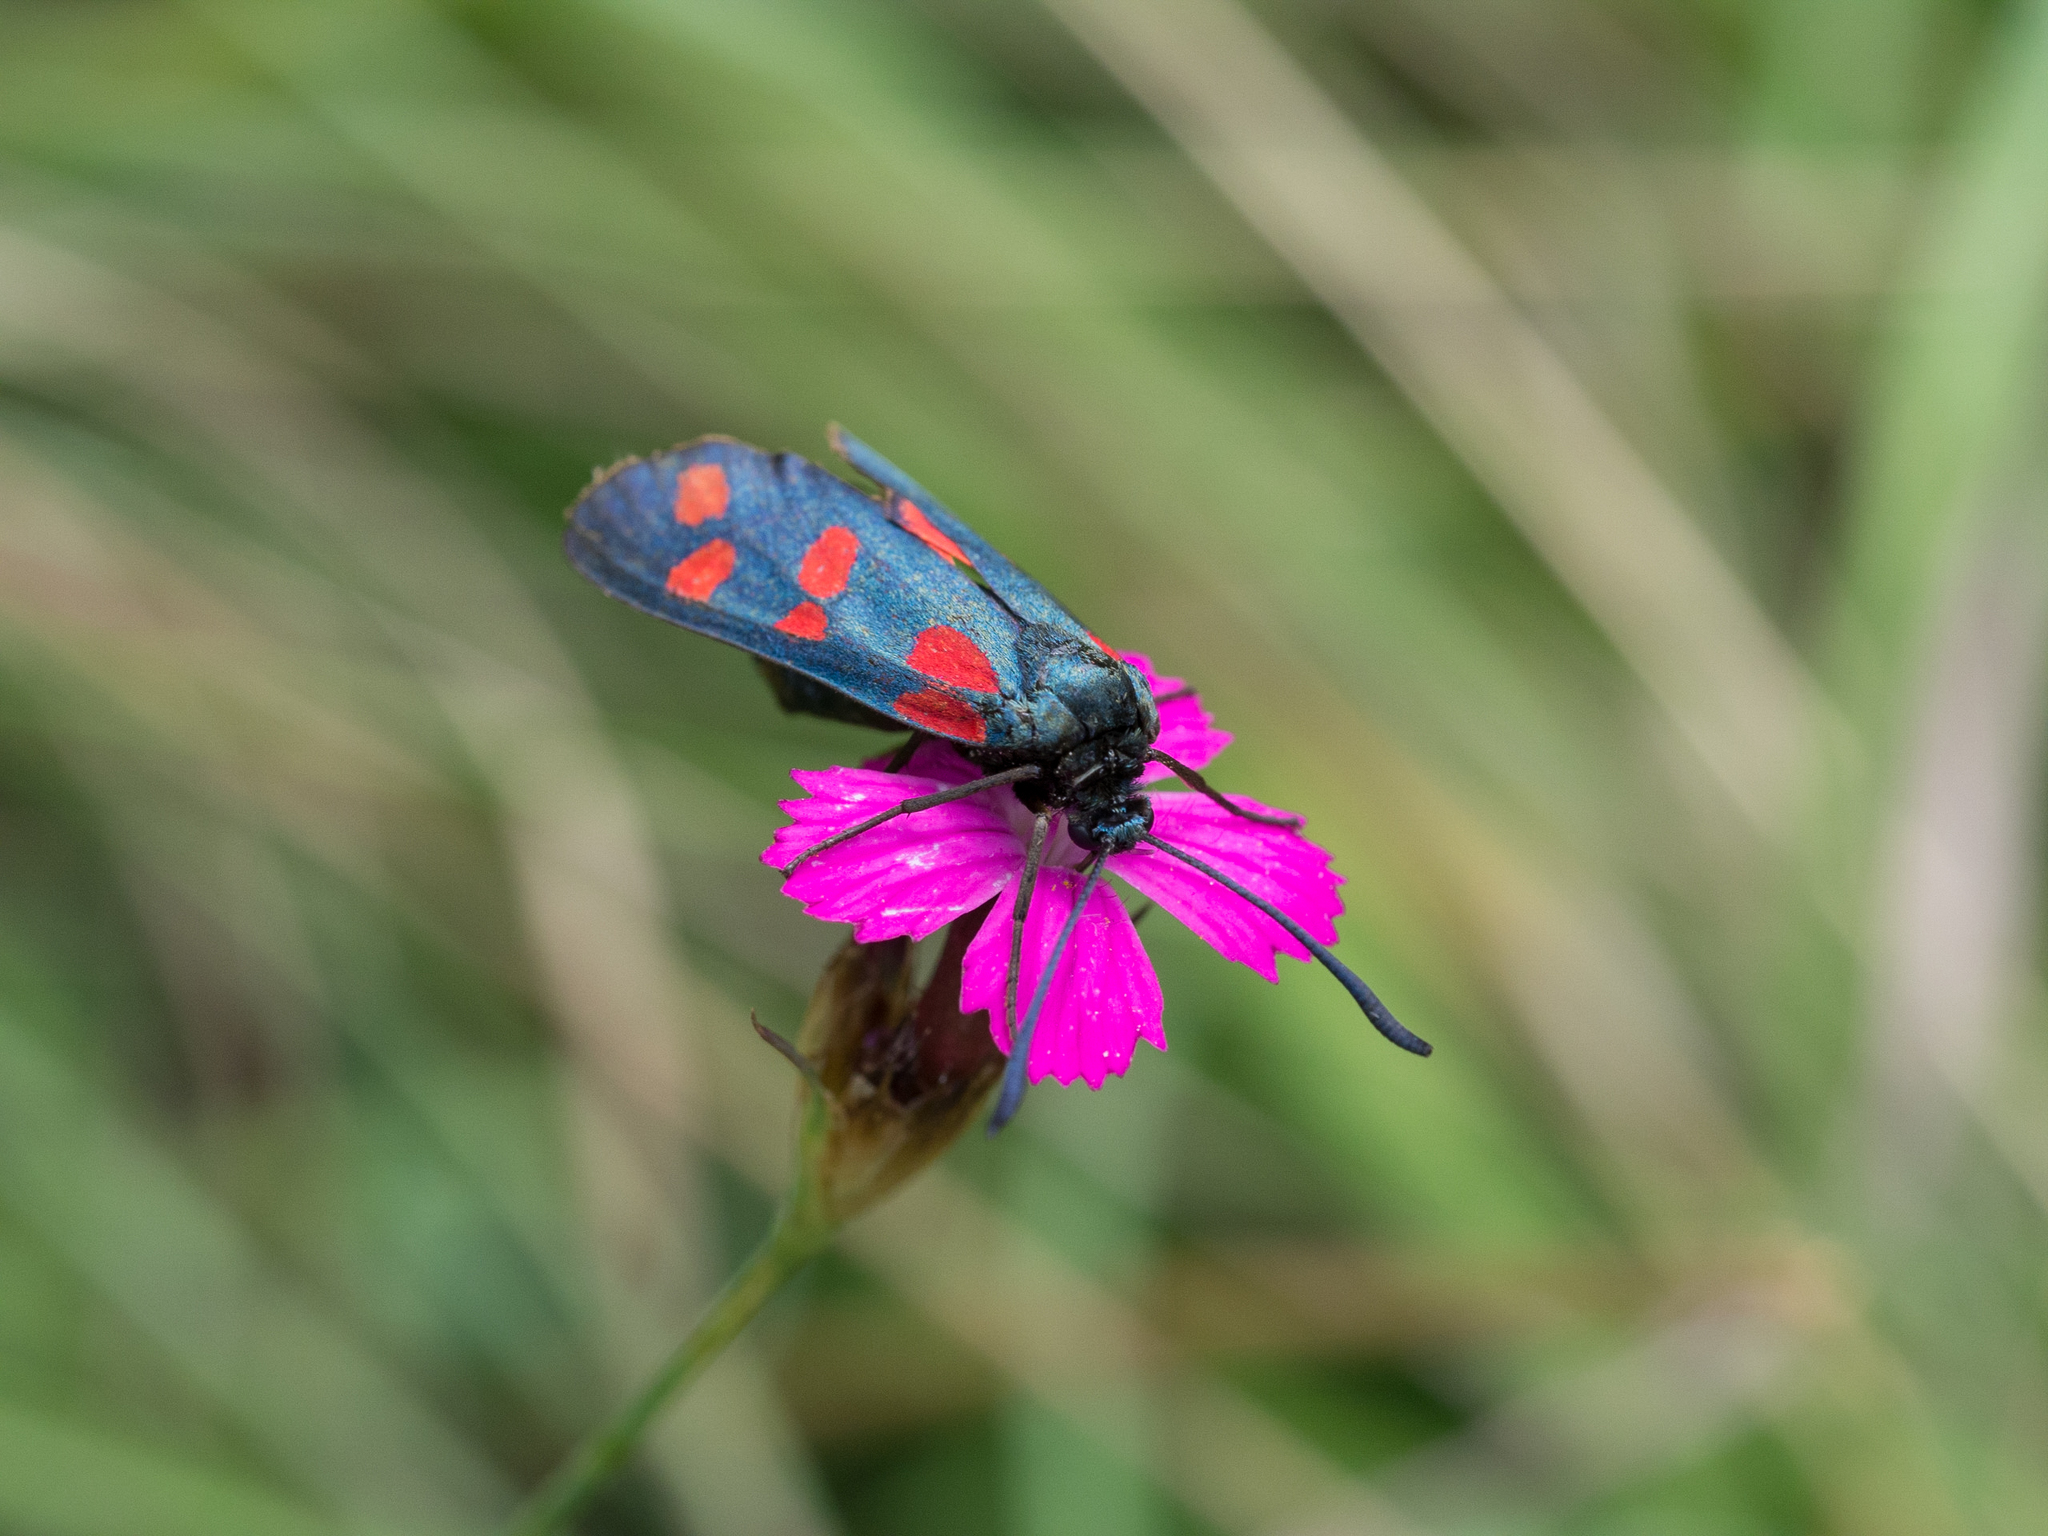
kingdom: Animalia
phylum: Arthropoda
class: Insecta
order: Lepidoptera
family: Zygaenidae
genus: Zygaena
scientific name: Zygaena filipendulae
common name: Six-spot burnet
